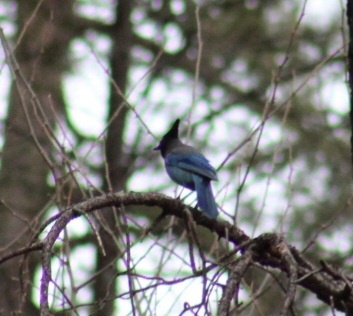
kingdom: Animalia
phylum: Chordata
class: Aves
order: Passeriformes
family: Corvidae
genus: Cyanocitta
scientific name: Cyanocitta stelleri
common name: Steller's jay
